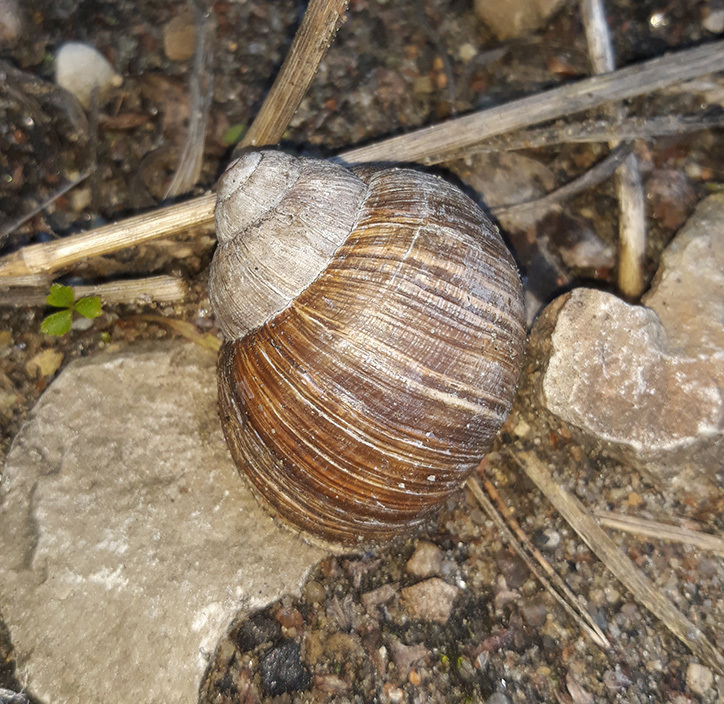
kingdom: Animalia
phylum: Mollusca
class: Gastropoda
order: Stylommatophora
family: Helicidae
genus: Helix
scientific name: Helix pomatia
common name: Roman snail
